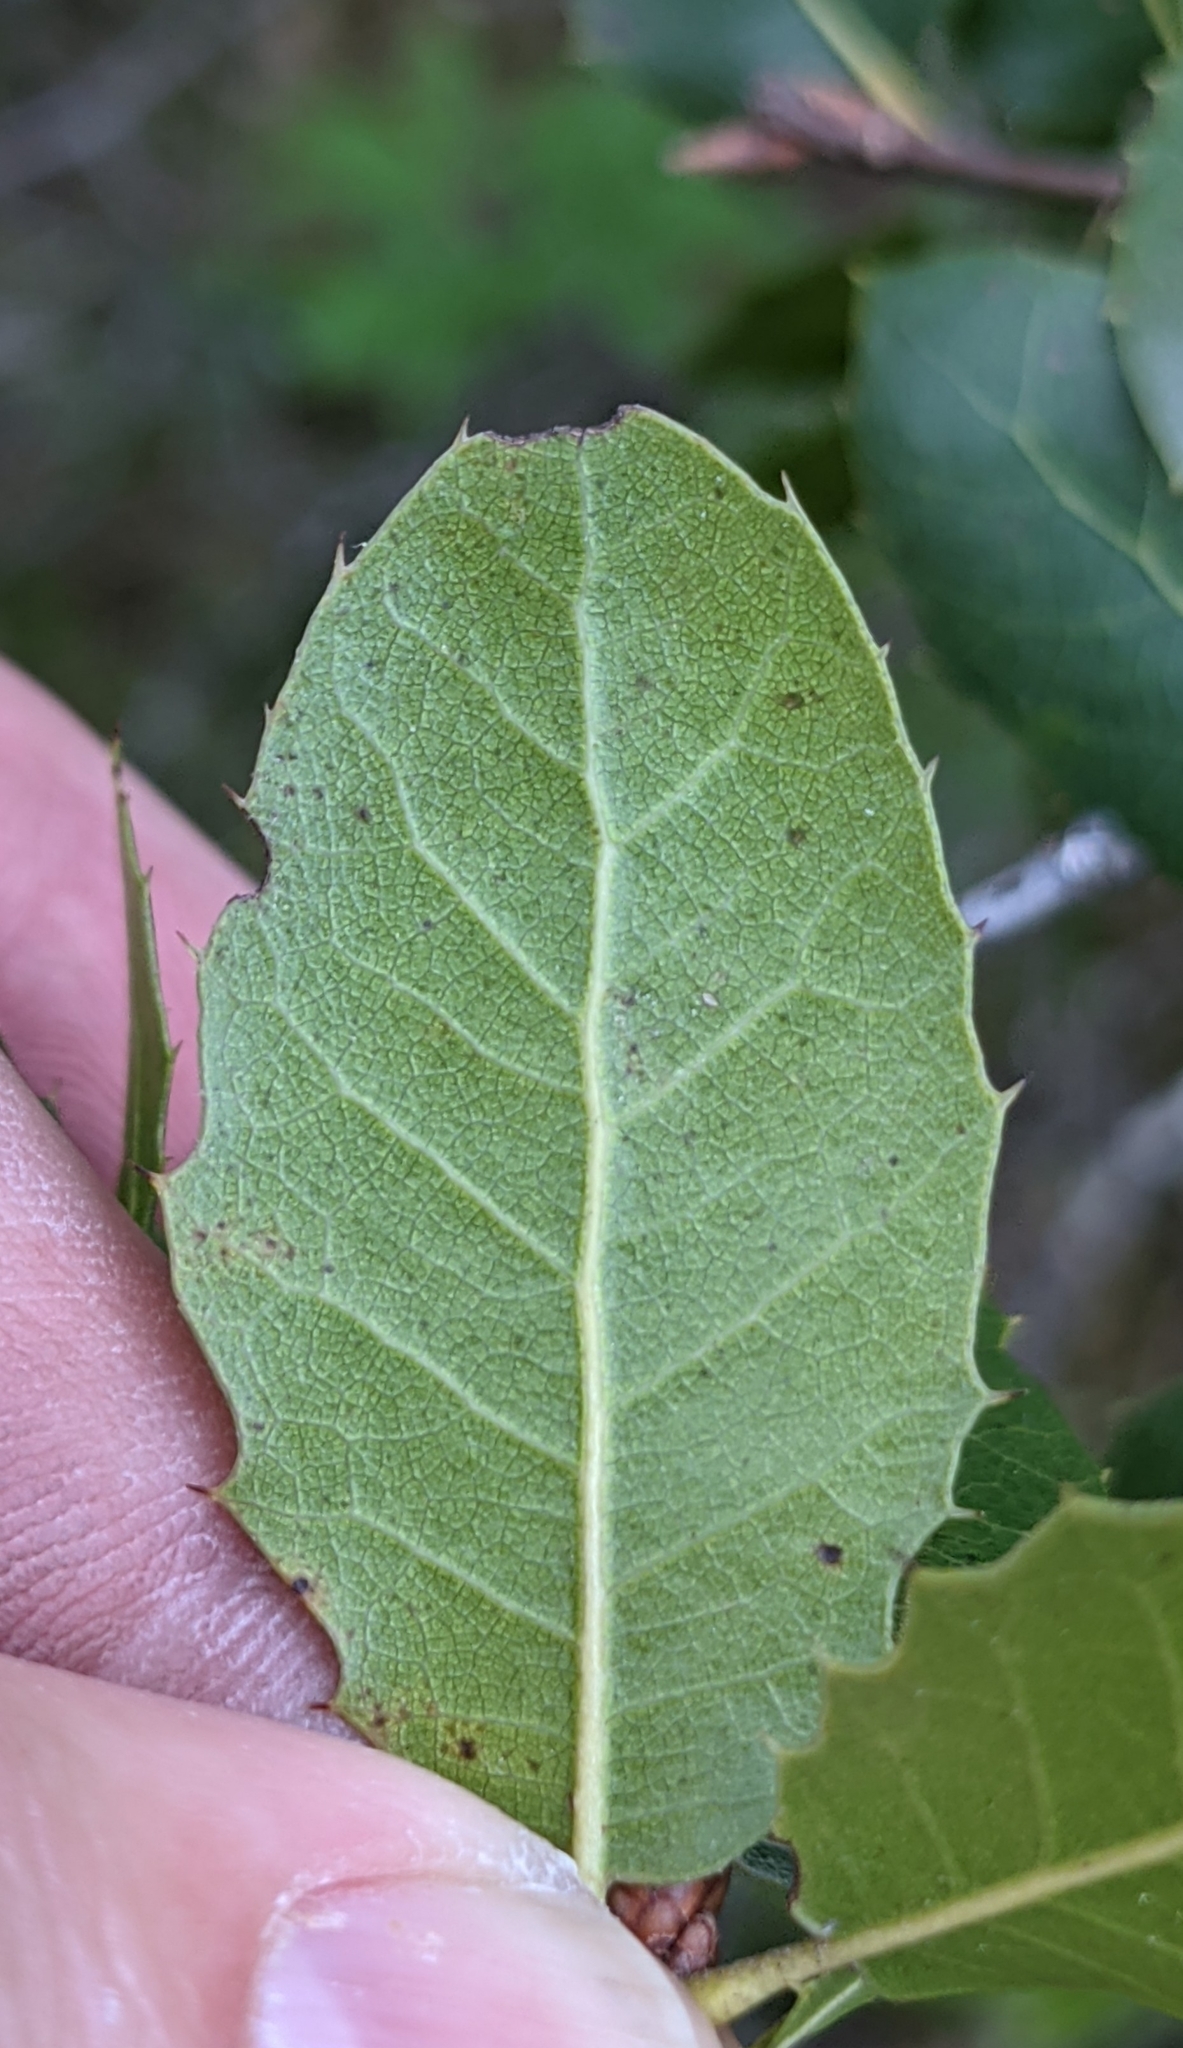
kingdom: Plantae
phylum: Tracheophyta
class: Magnoliopsida
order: Fagales
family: Fagaceae
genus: Quercus
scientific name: Quercus wislizeni
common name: Interior live oak
